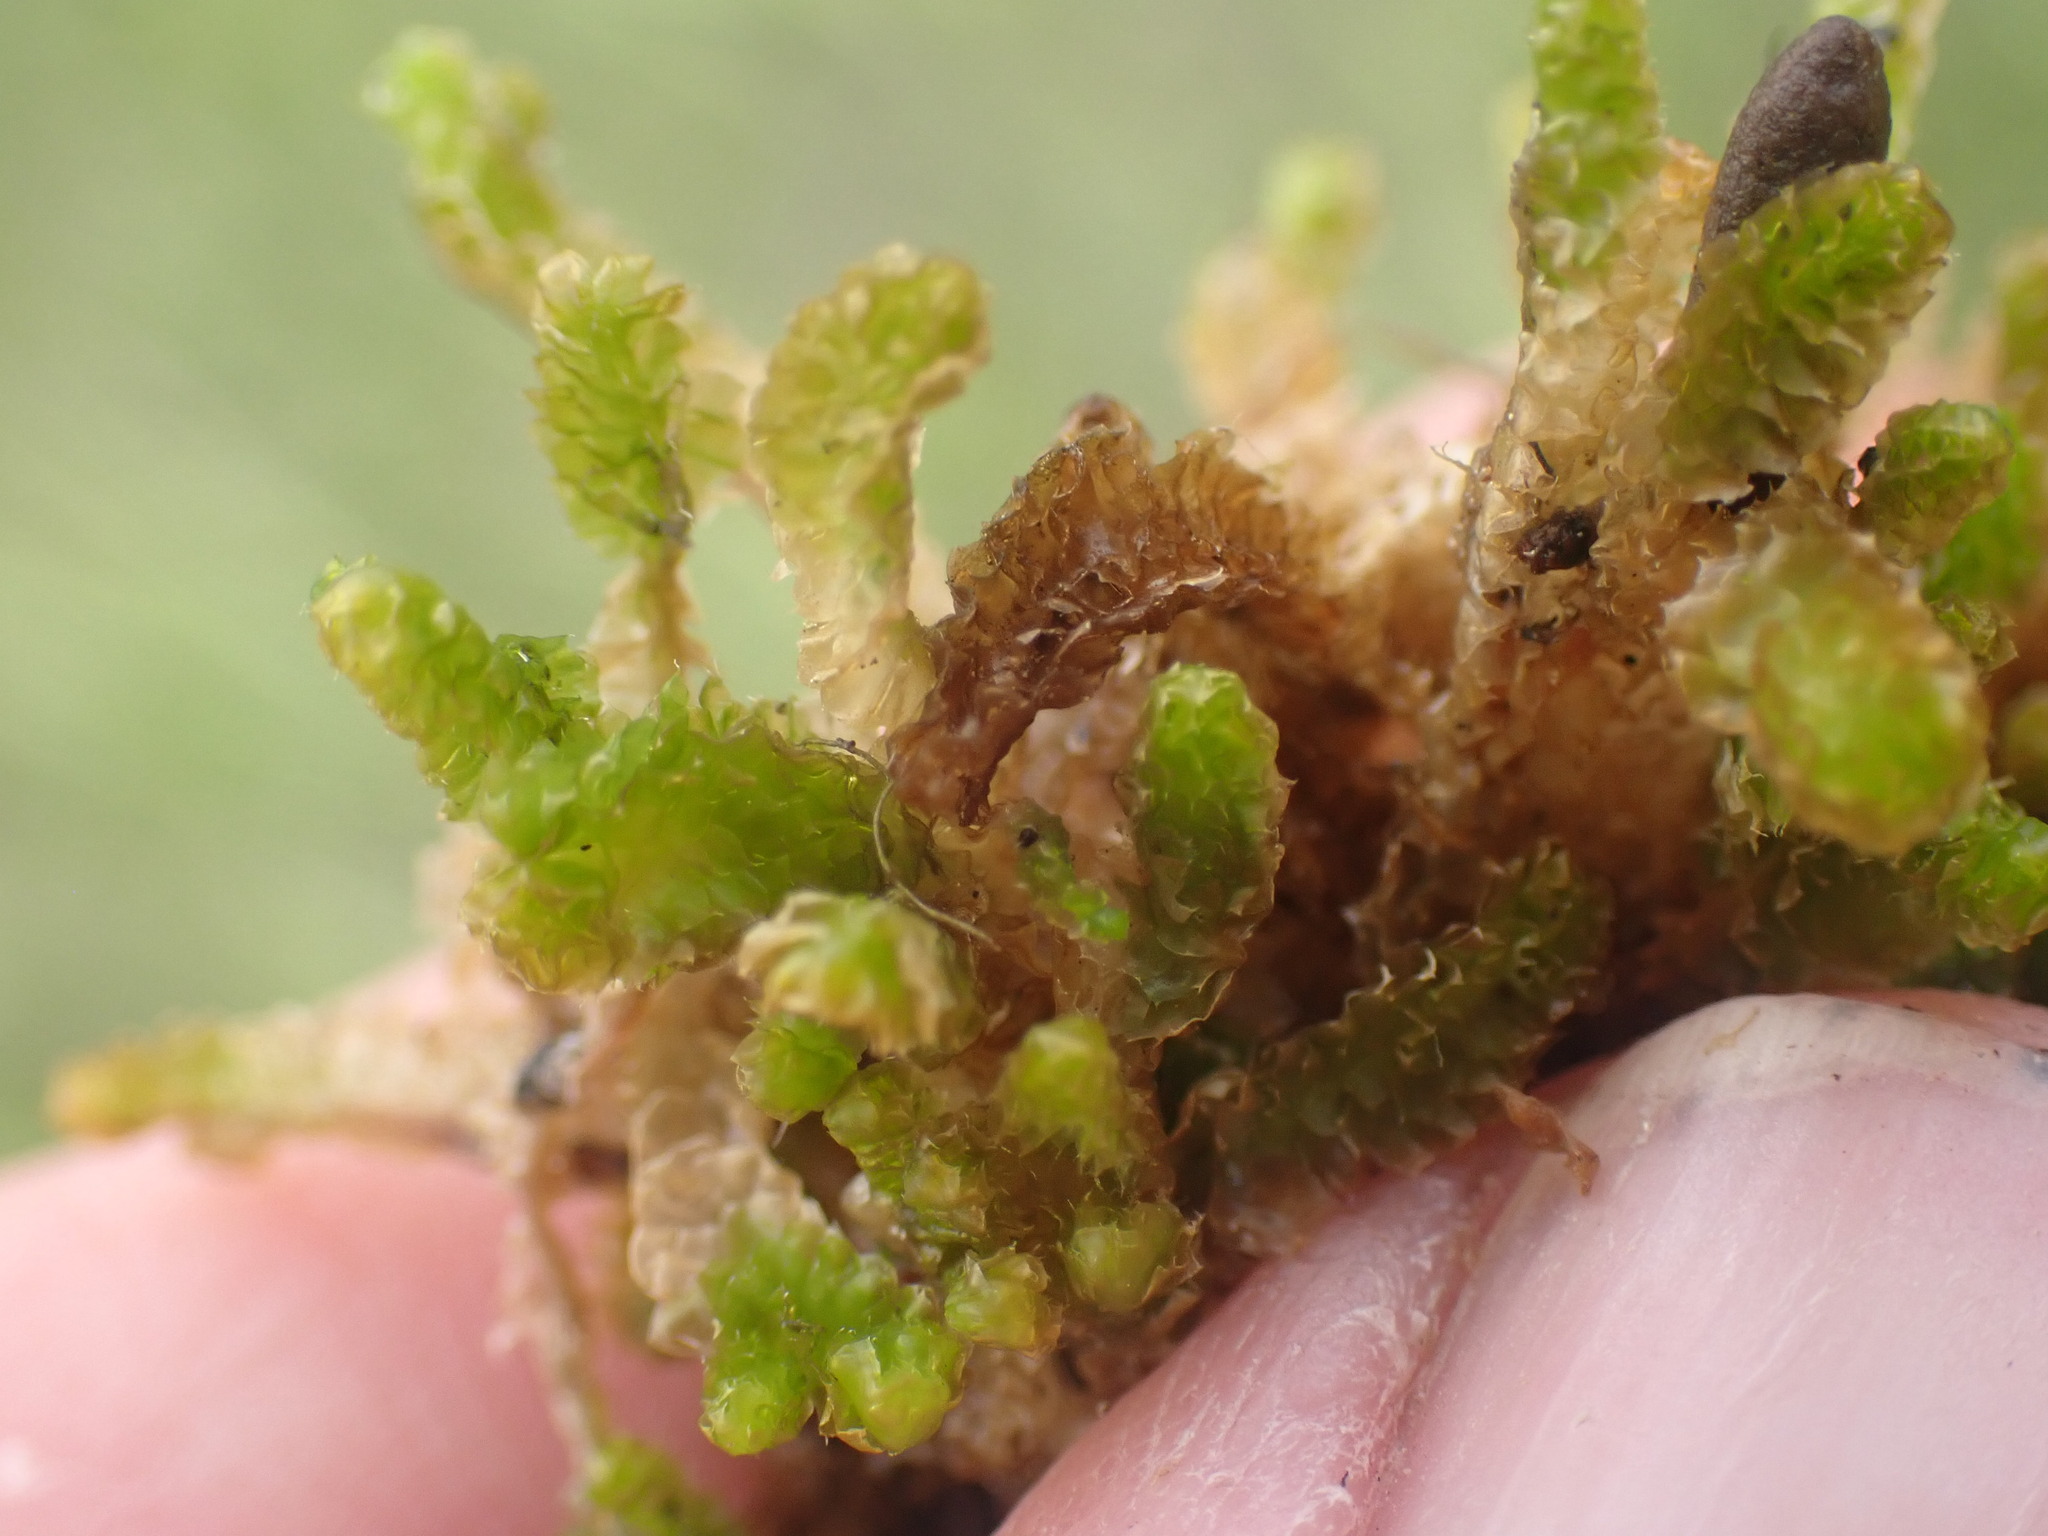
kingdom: Plantae
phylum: Marchantiophyta
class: Jungermanniopsida
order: Jungermanniales
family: Anastrophyllaceae
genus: Barbilophozia
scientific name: Barbilophozia lycopodioides
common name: Greater pawwort
